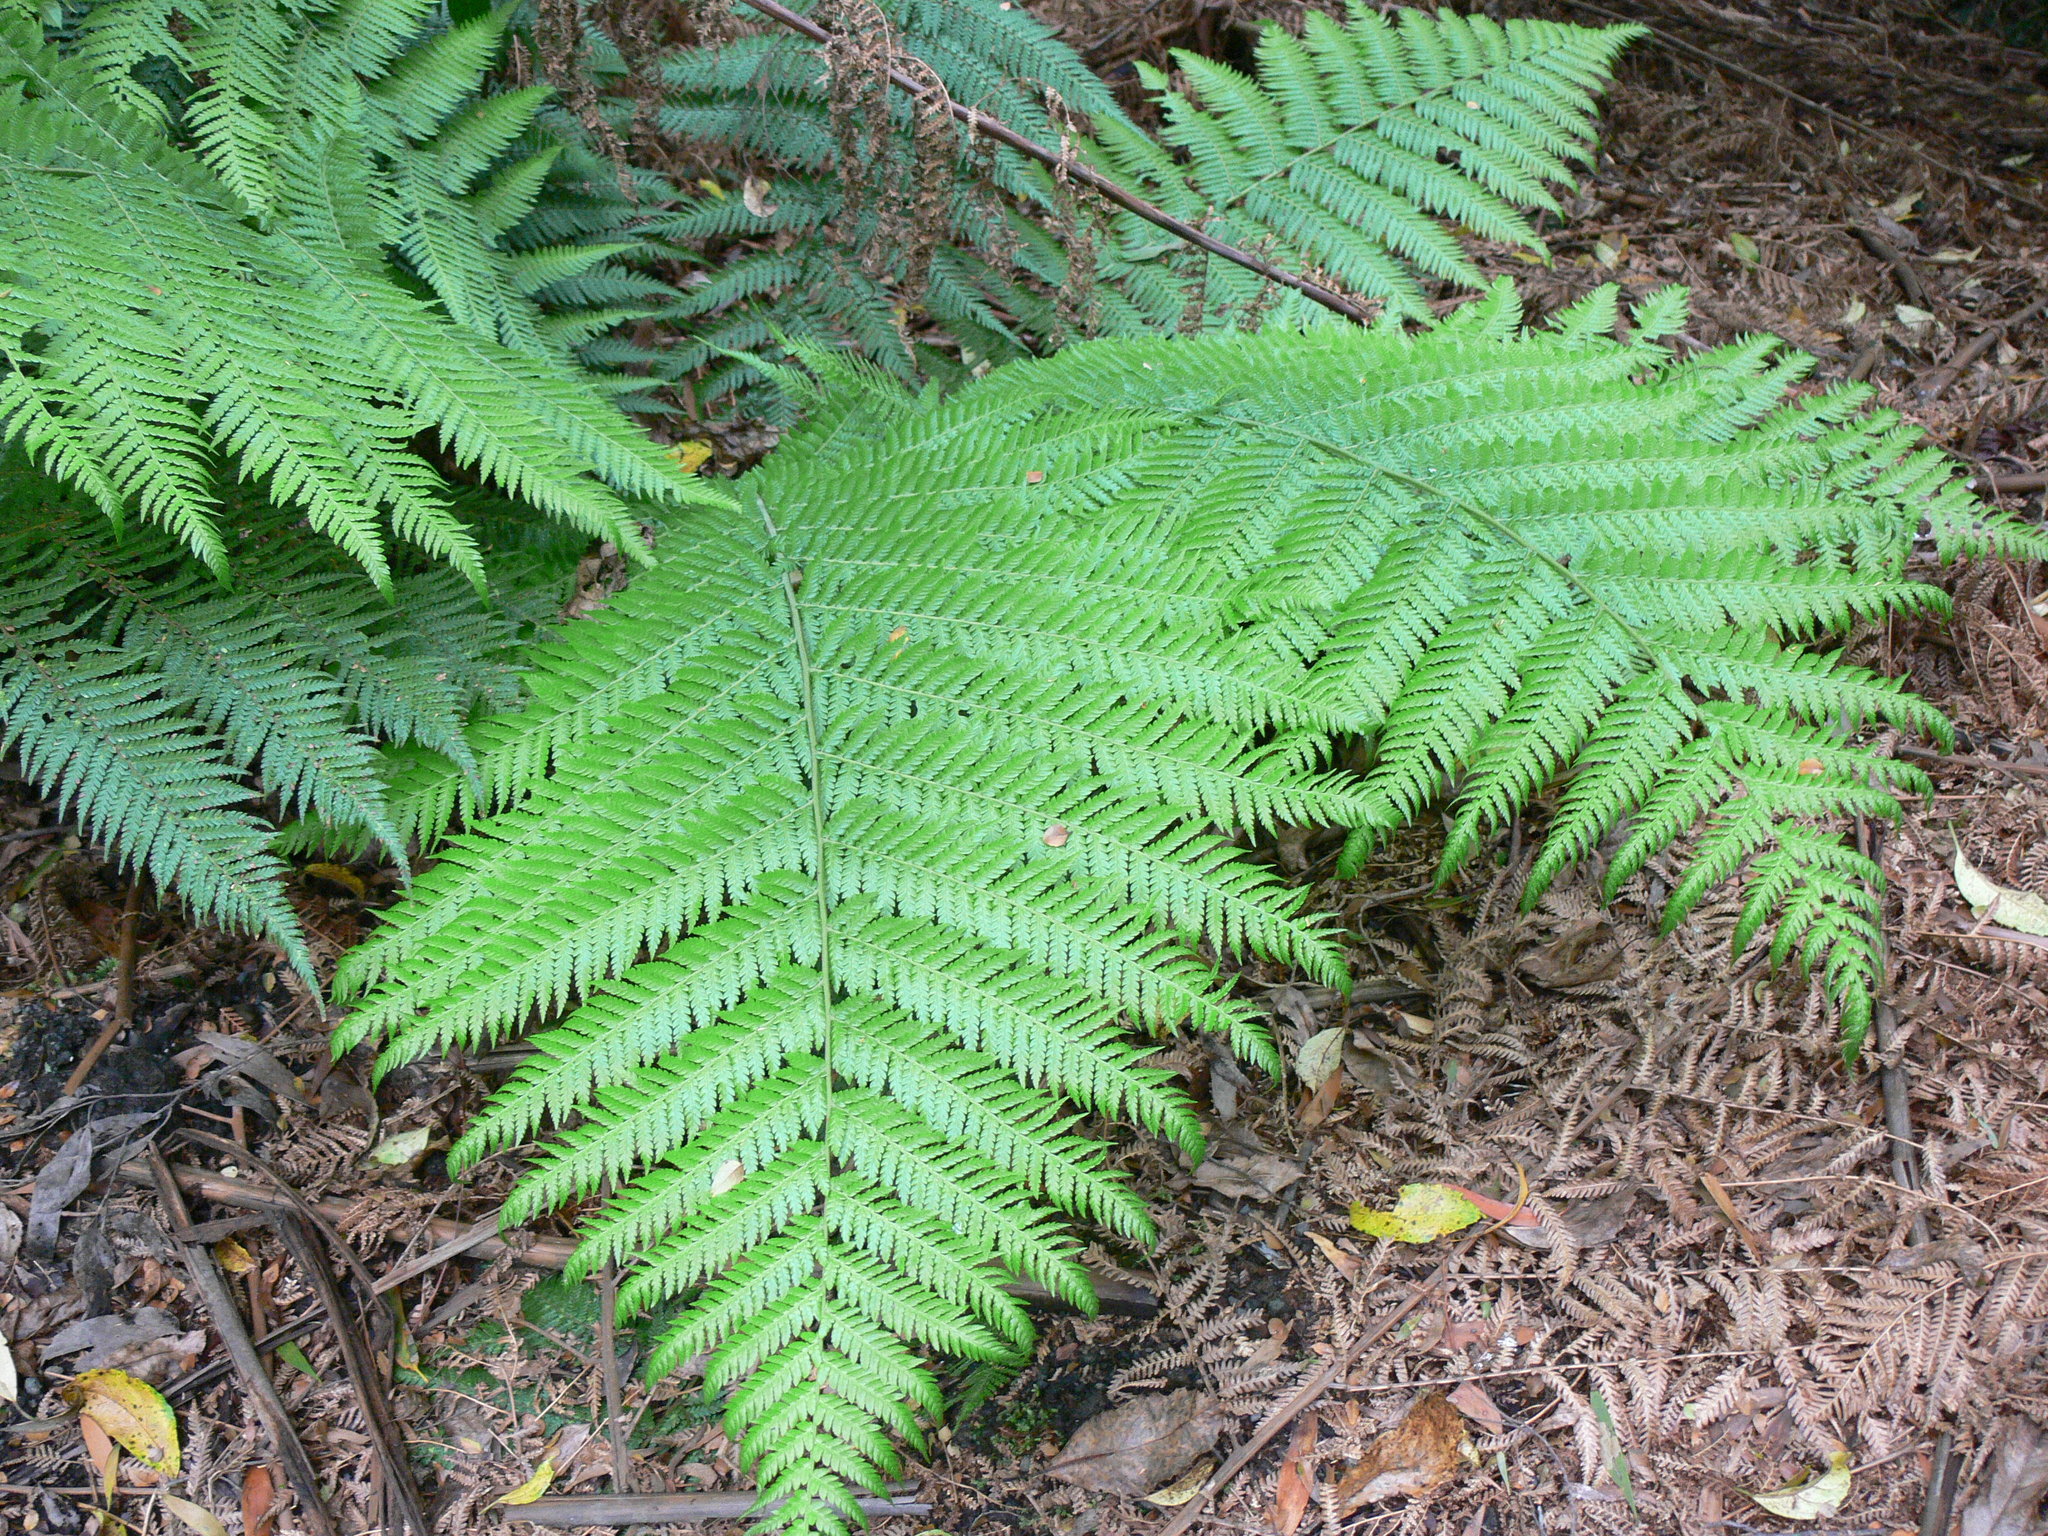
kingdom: Plantae
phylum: Tracheophyta
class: Polypodiopsida
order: Cyatheales
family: Dicksoniaceae
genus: Dicksonia
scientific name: Dicksonia antarctica
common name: Australian treefern
